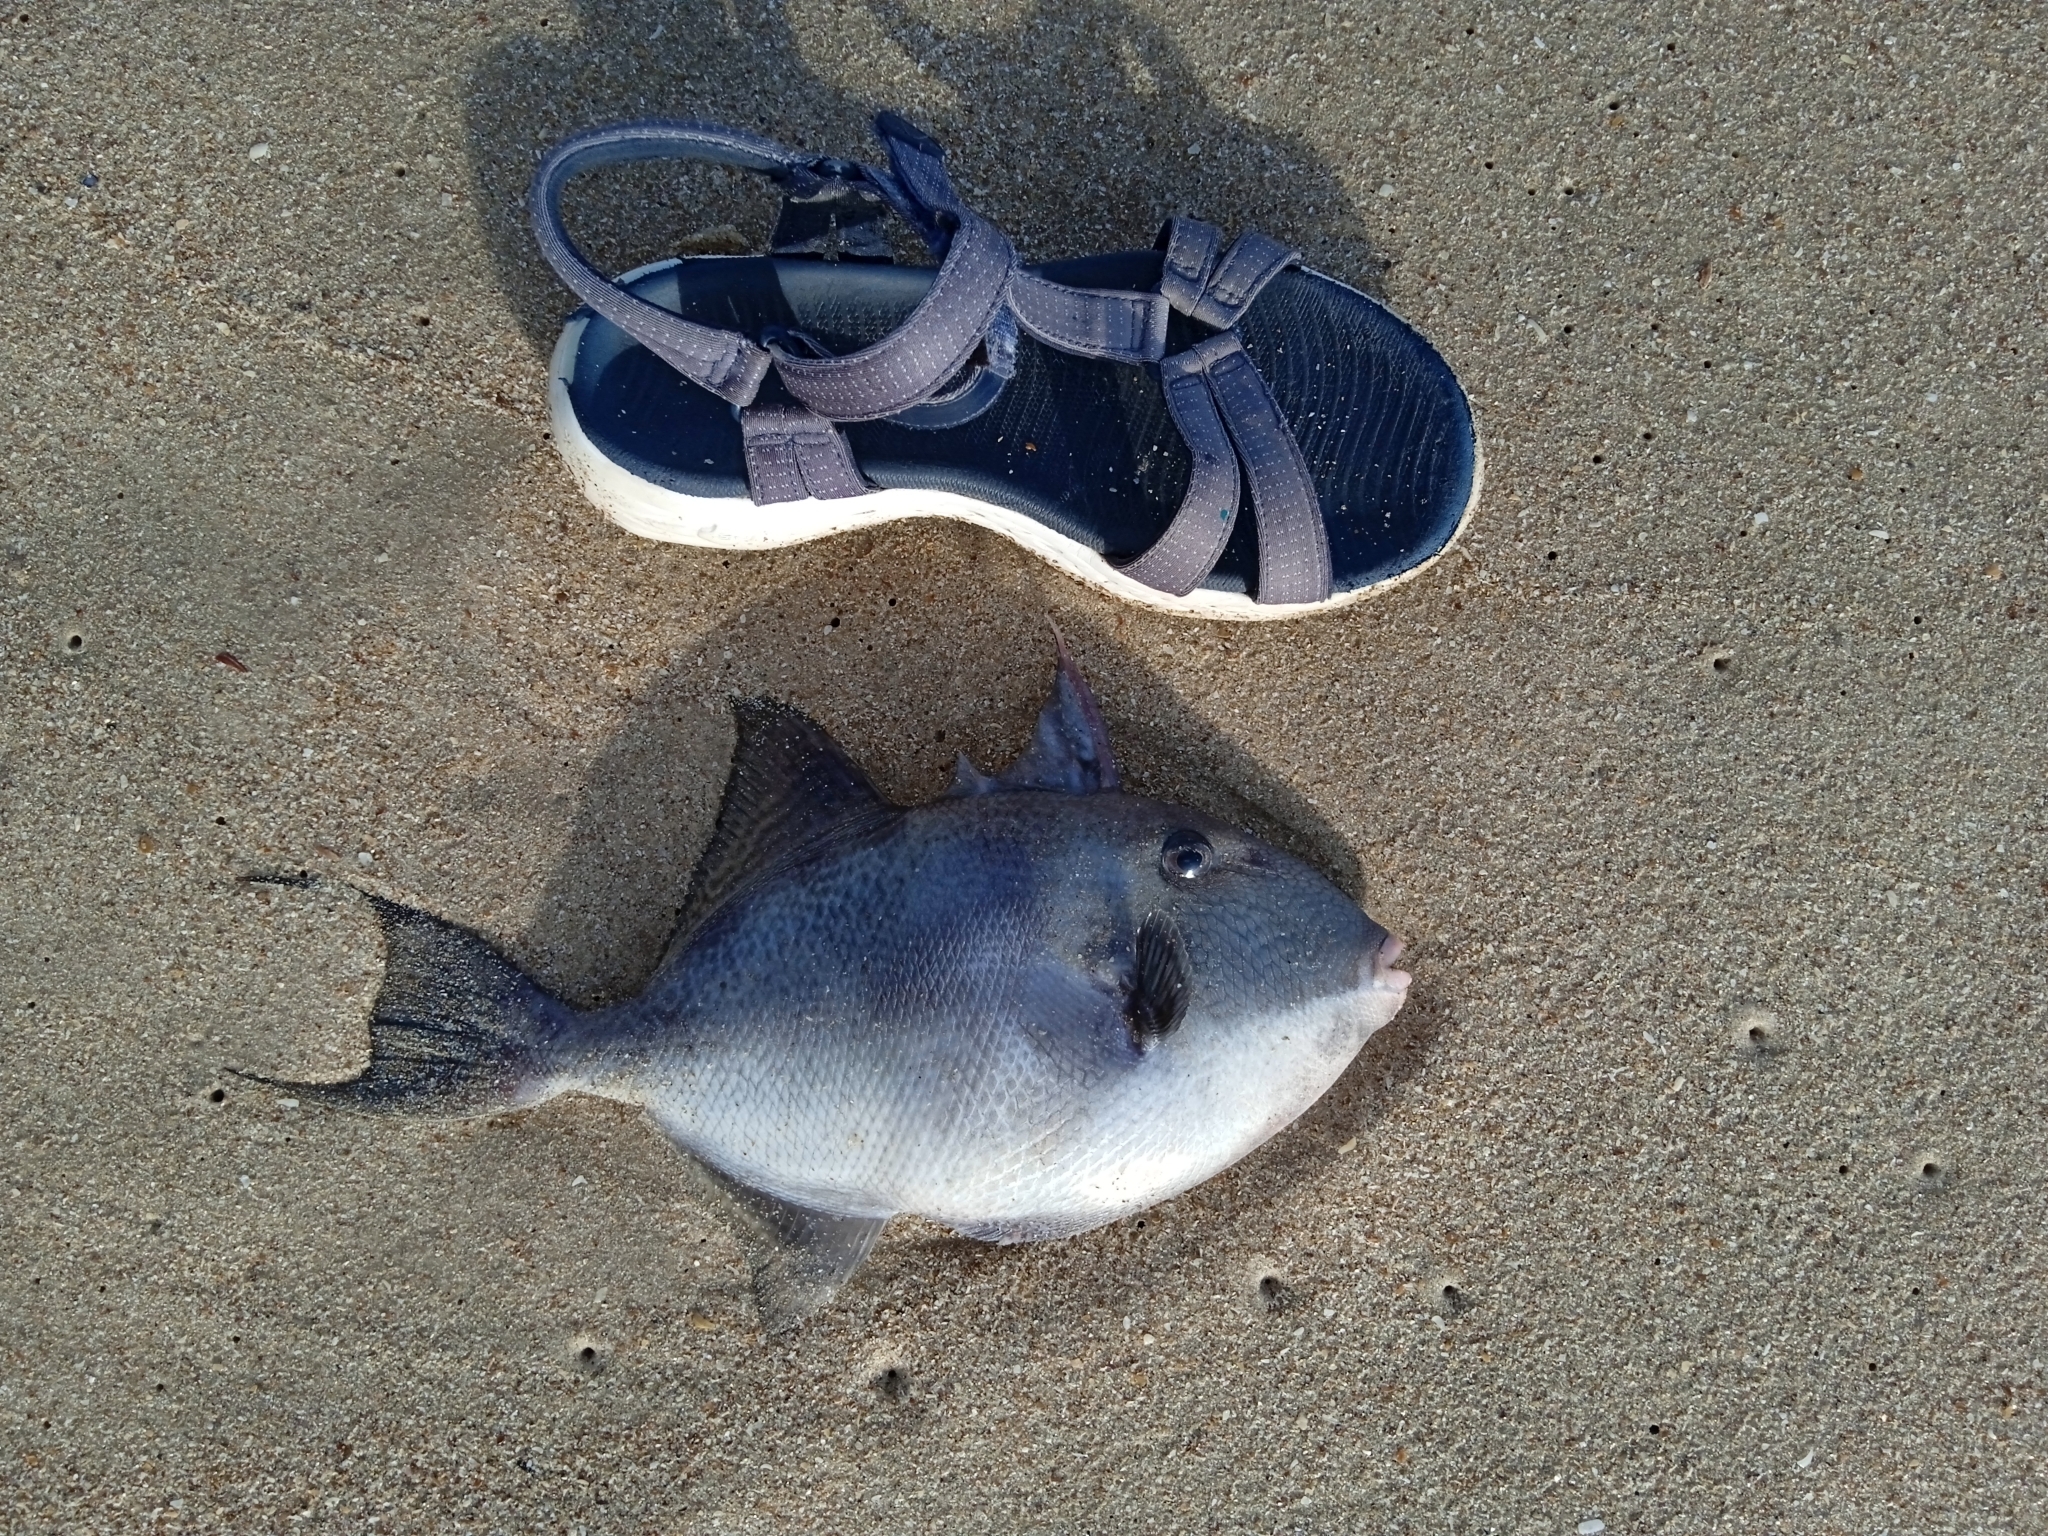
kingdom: Animalia
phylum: Chordata
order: Tetraodontiformes
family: Balistidae
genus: Balistes
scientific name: Balistes capriscus
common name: Grey triggerfish
